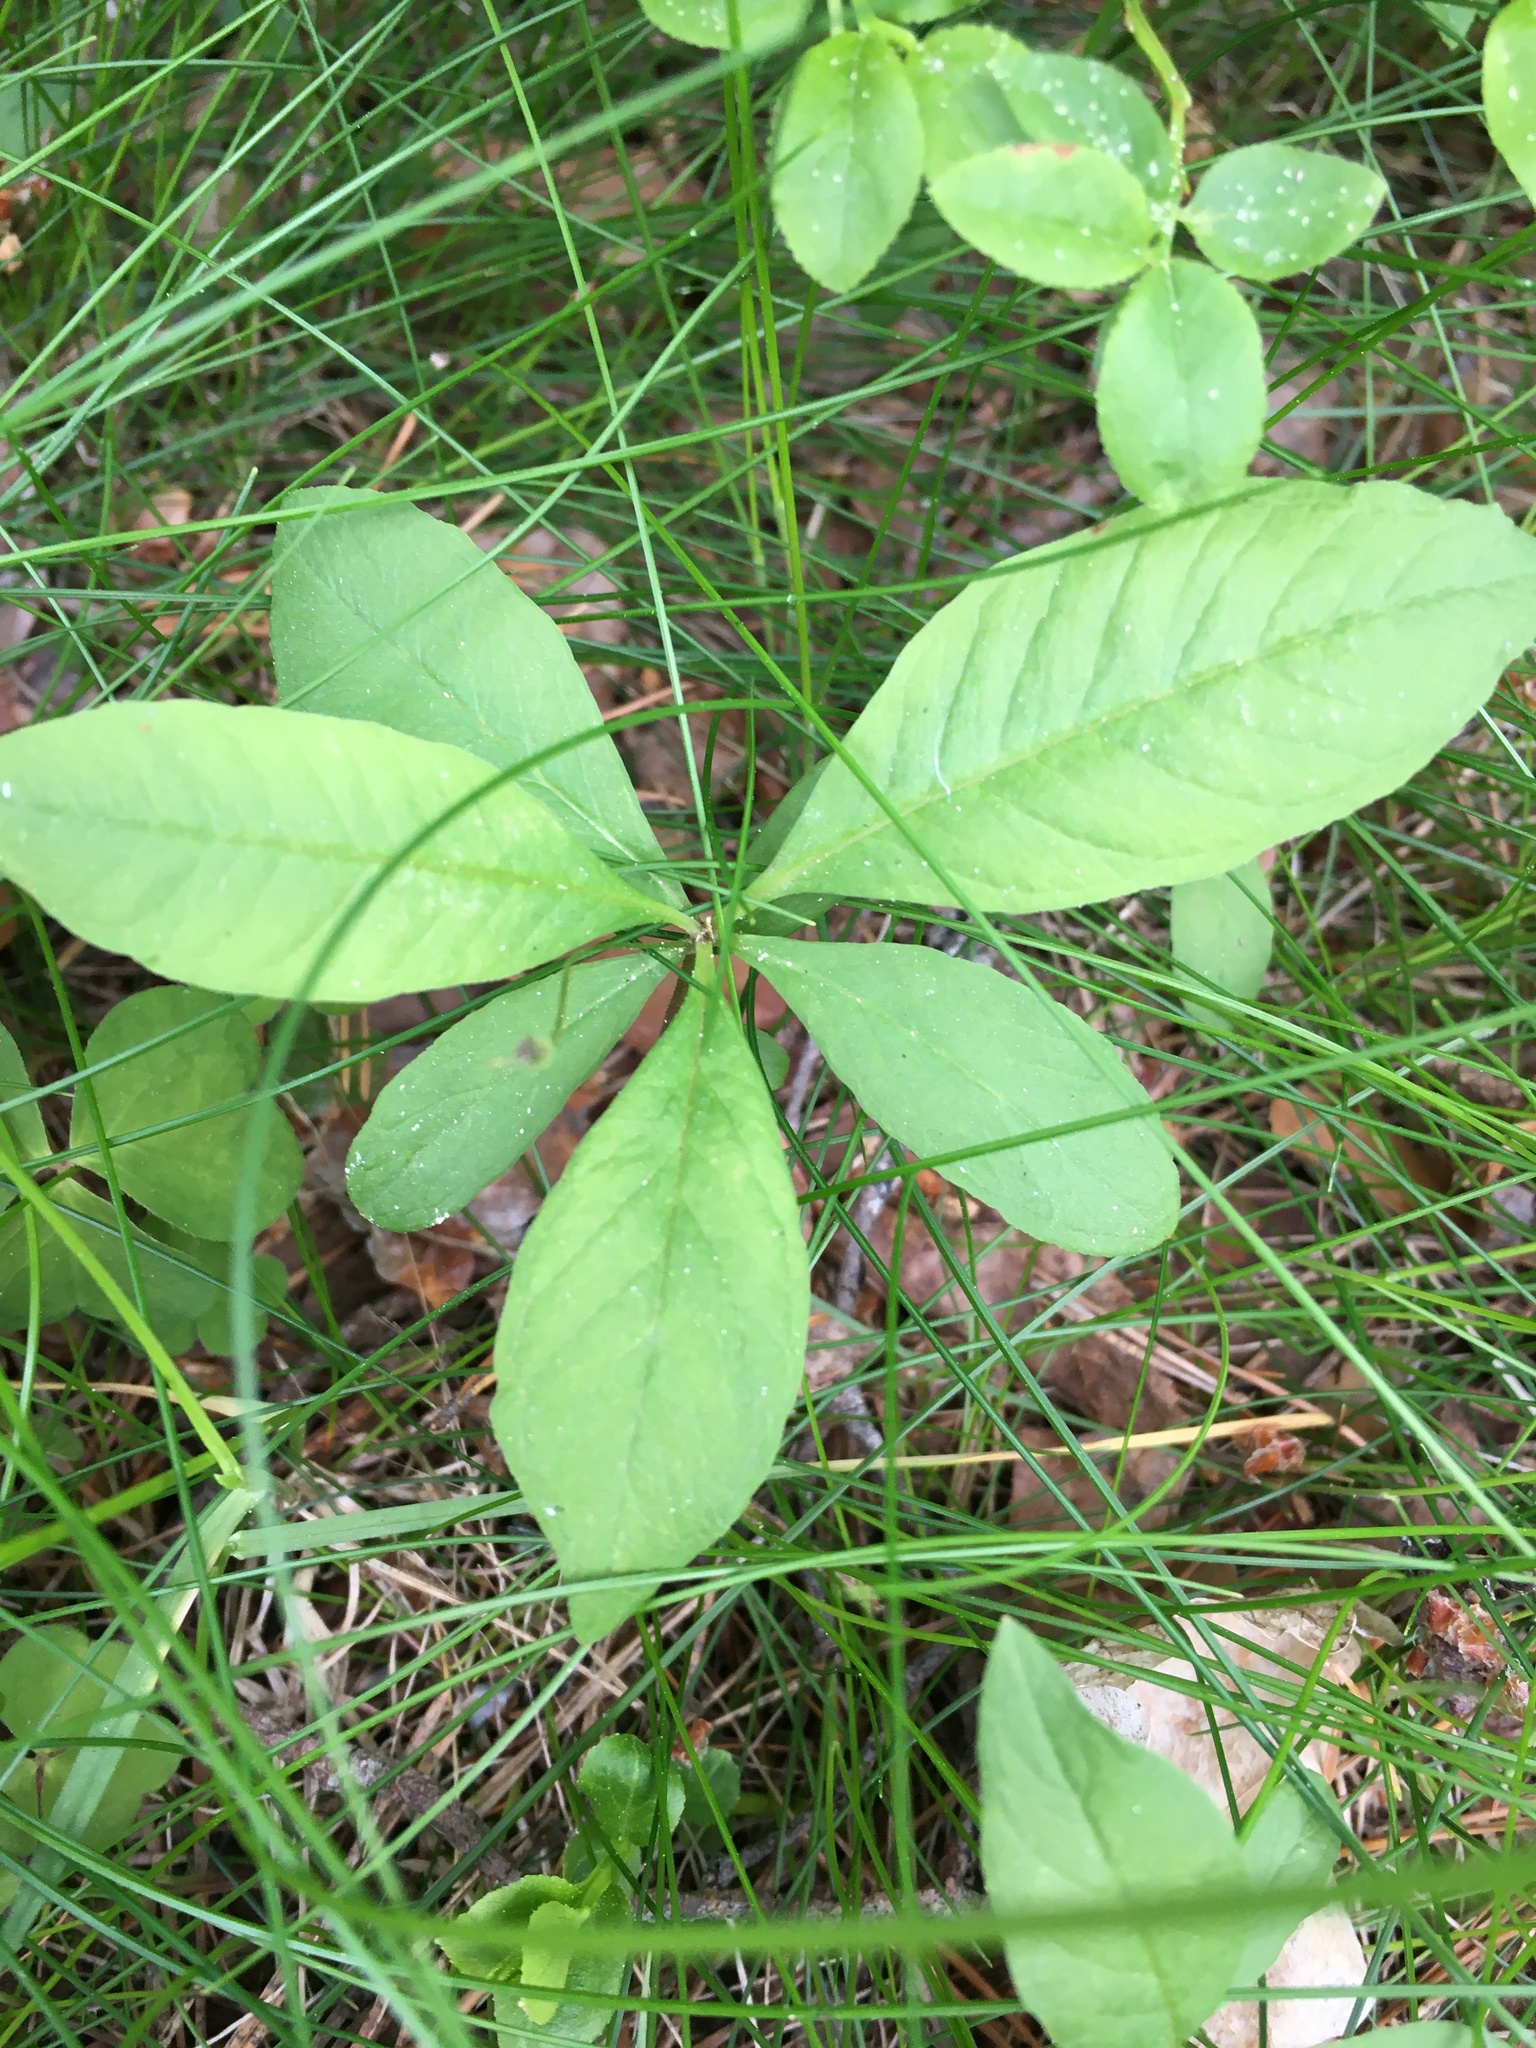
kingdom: Plantae
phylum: Tracheophyta
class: Magnoliopsida
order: Ericales
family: Primulaceae
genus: Lysimachia
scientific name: Lysimachia europaea
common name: Arctic starflower
